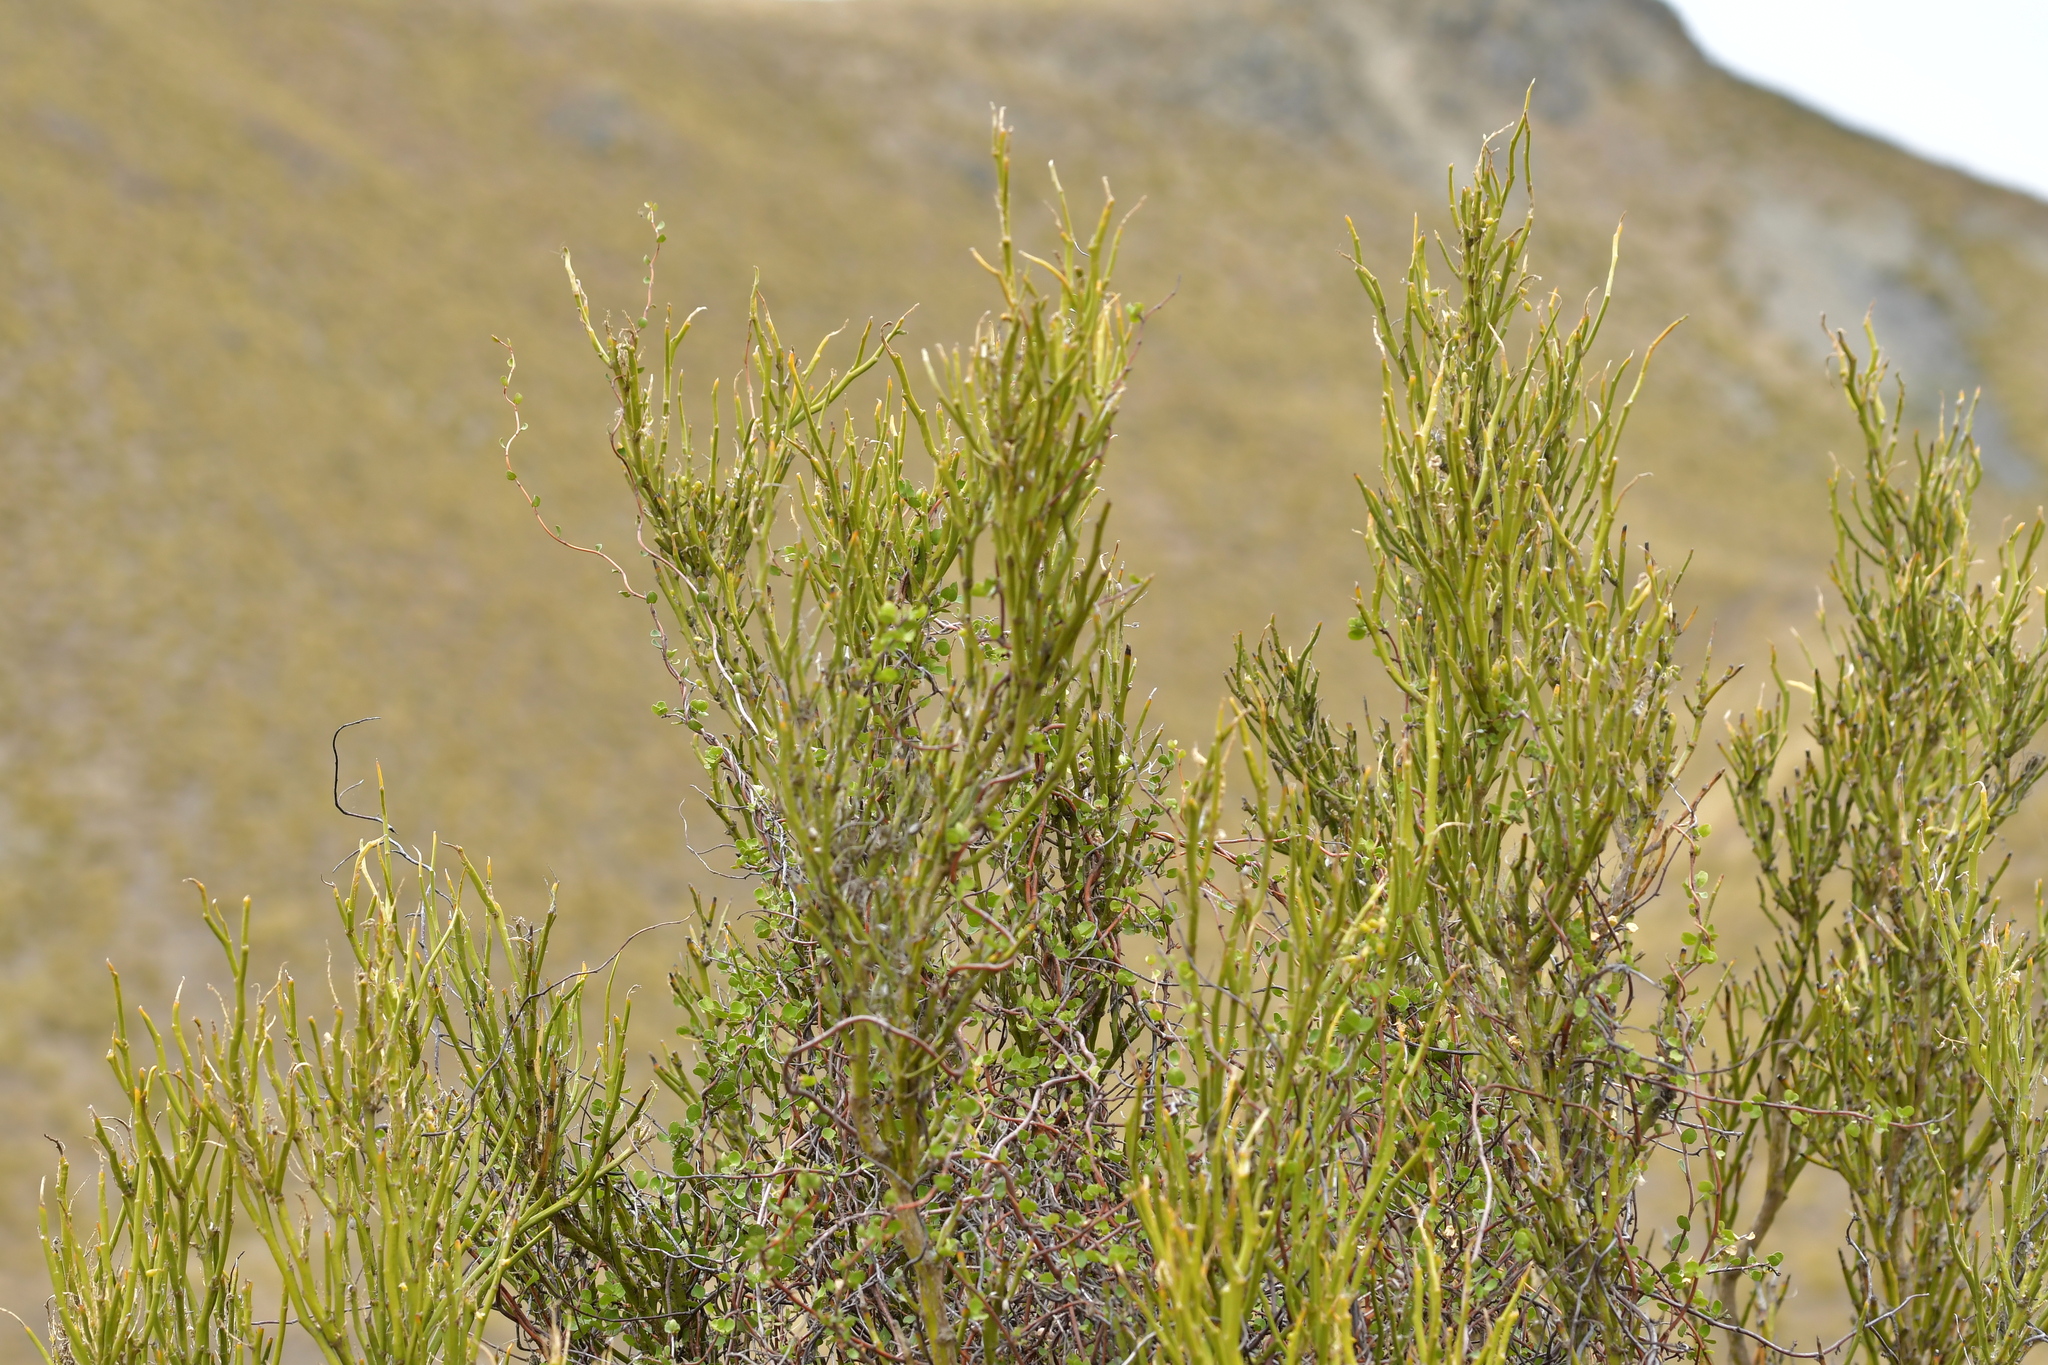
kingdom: Plantae
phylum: Tracheophyta
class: Magnoliopsida
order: Fabales
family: Fabaceae
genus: Carmichaelia
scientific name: Carmichaelia petriei
